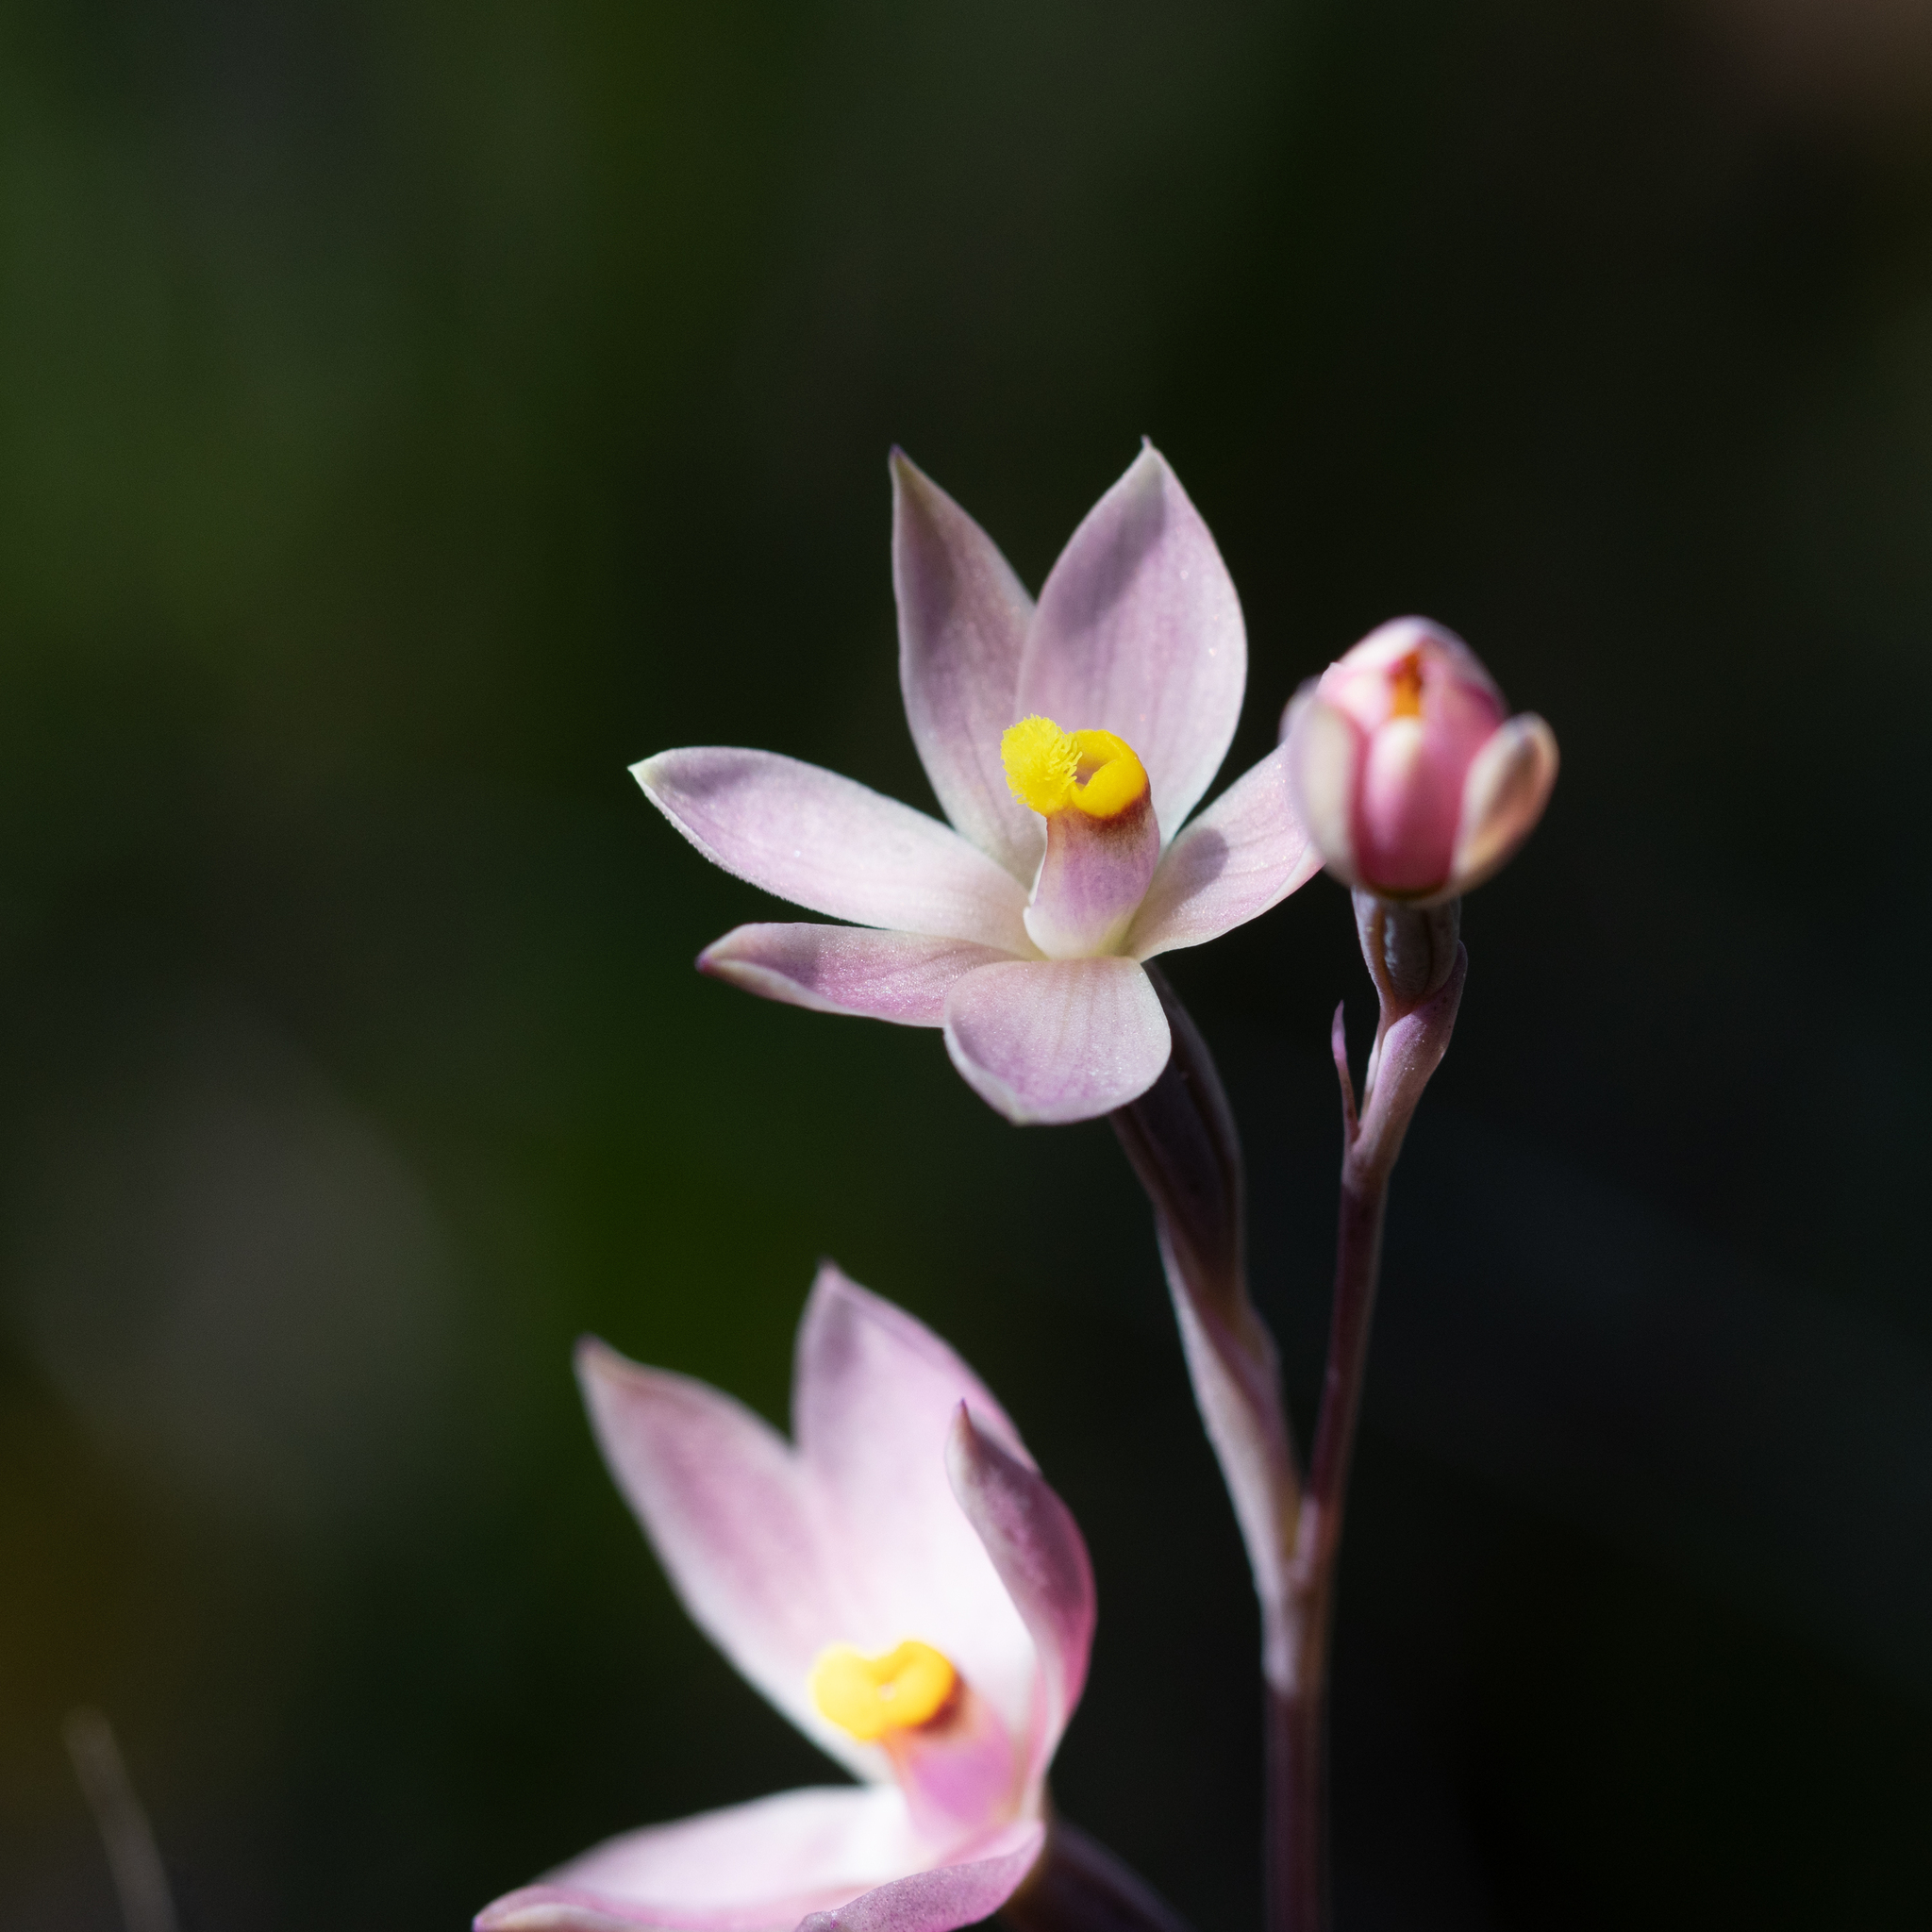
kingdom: Plantae
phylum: Tracheophyta
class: Liliopsida
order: Asparagales
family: Orchidaceae
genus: Thelymitra
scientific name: Thelymitra luteocilium
